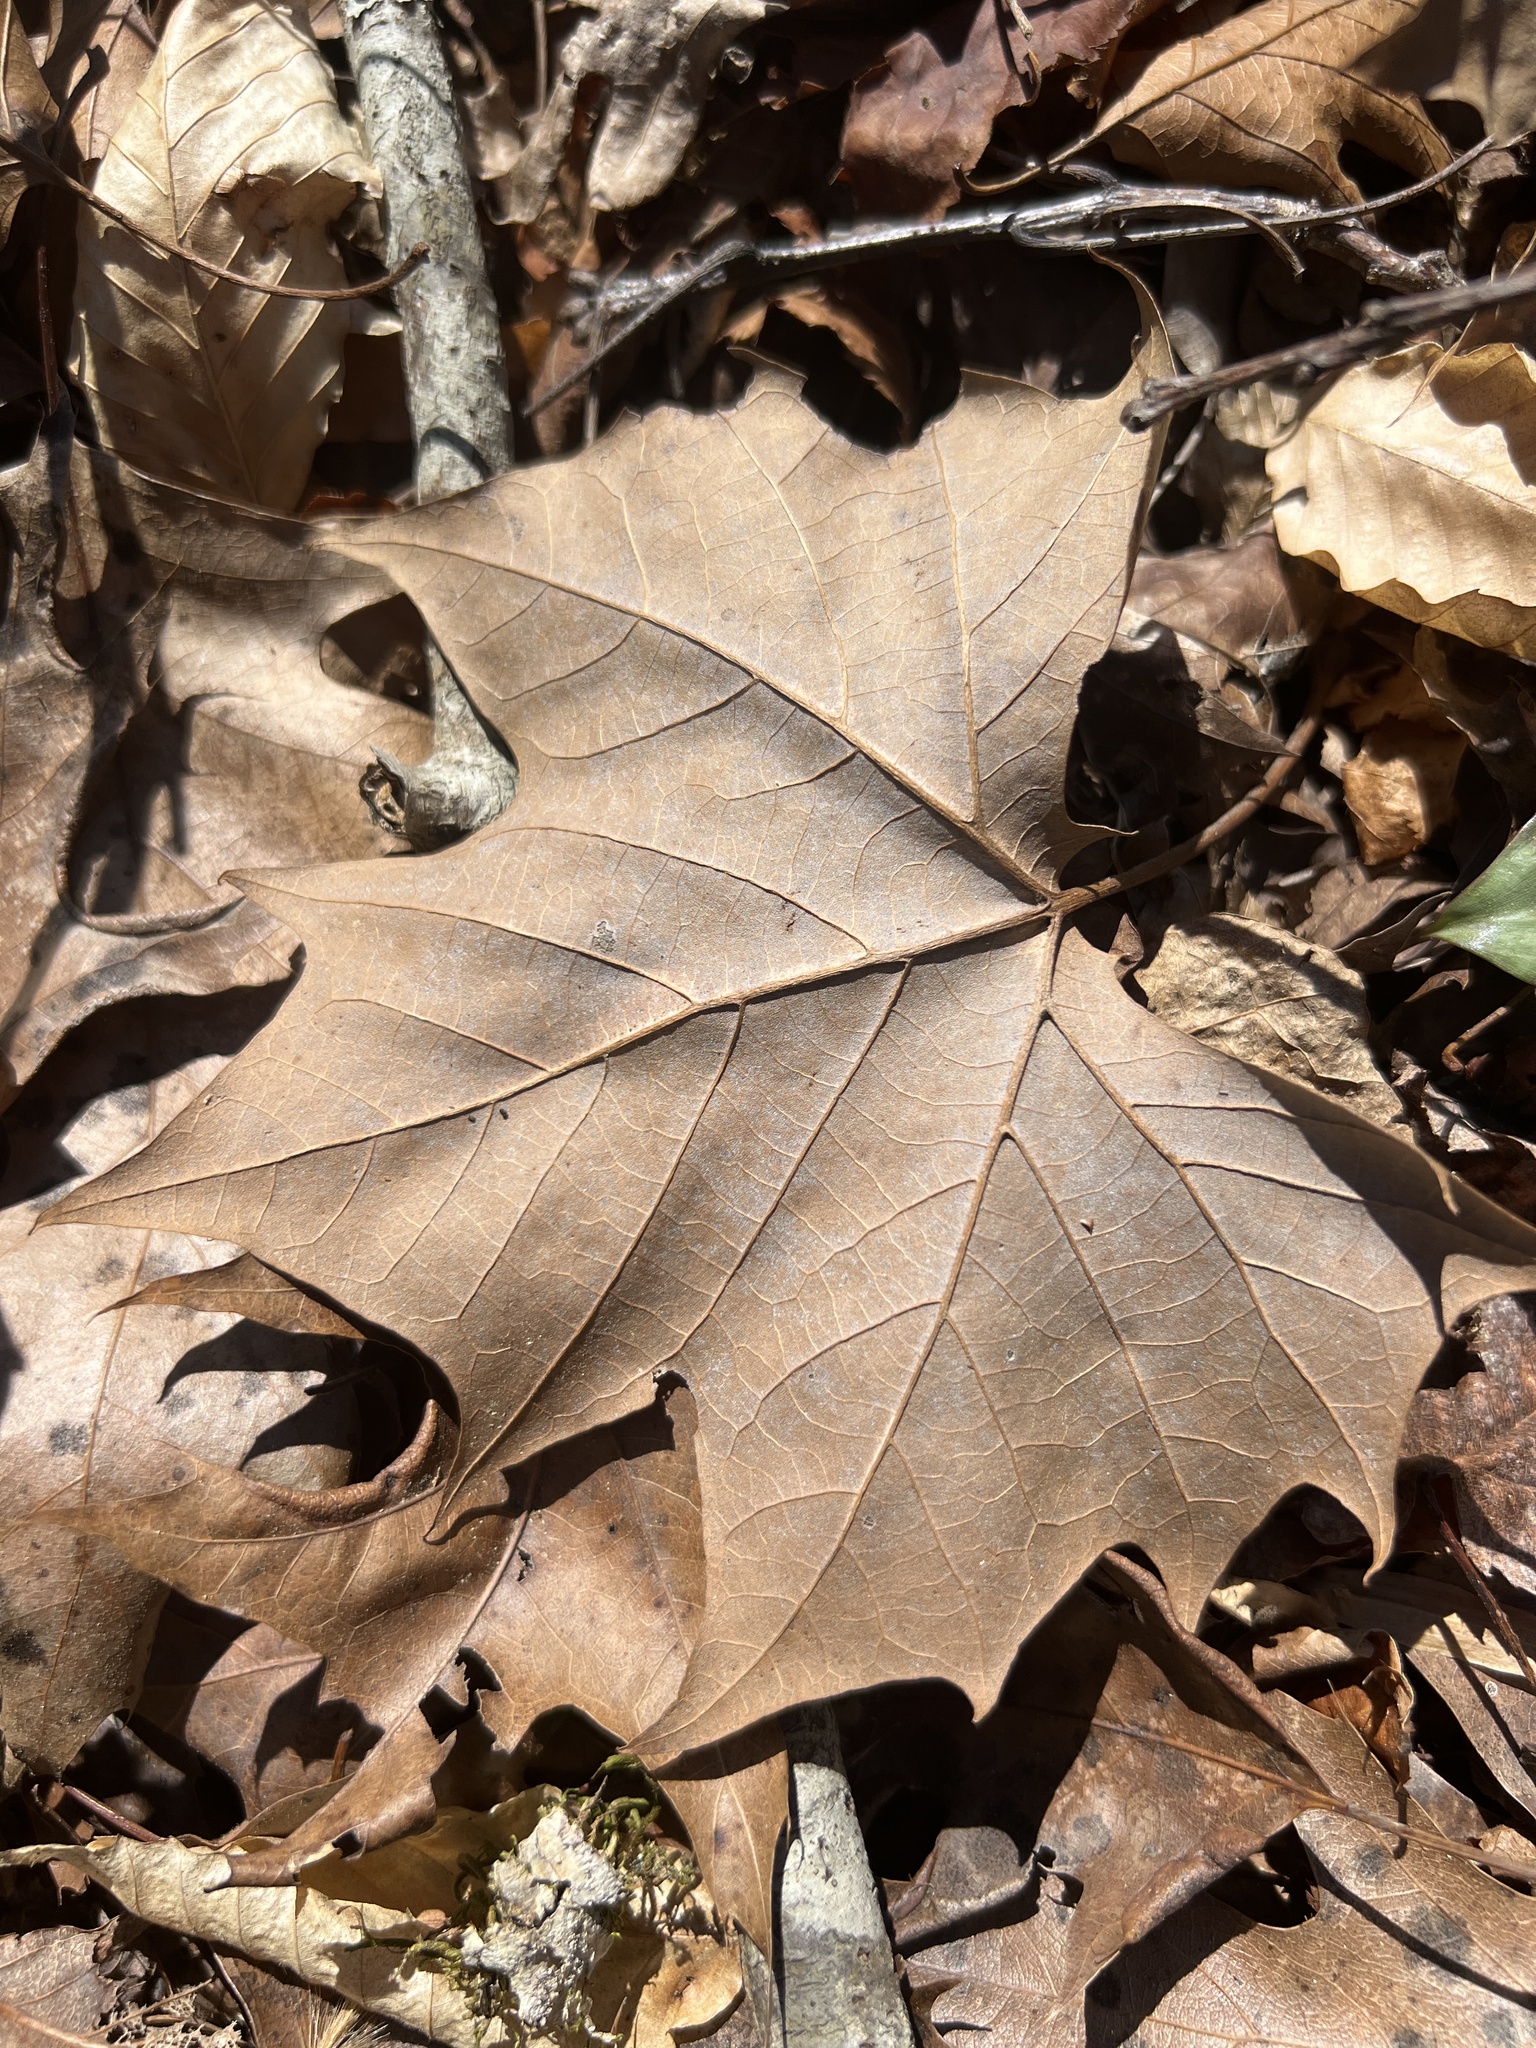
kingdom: Plantae
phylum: Tracheophyta
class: Magnoliopsida
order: Proteales
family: Platanaceae
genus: Platanus
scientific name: Platanus occidentalis
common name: American sycamore
